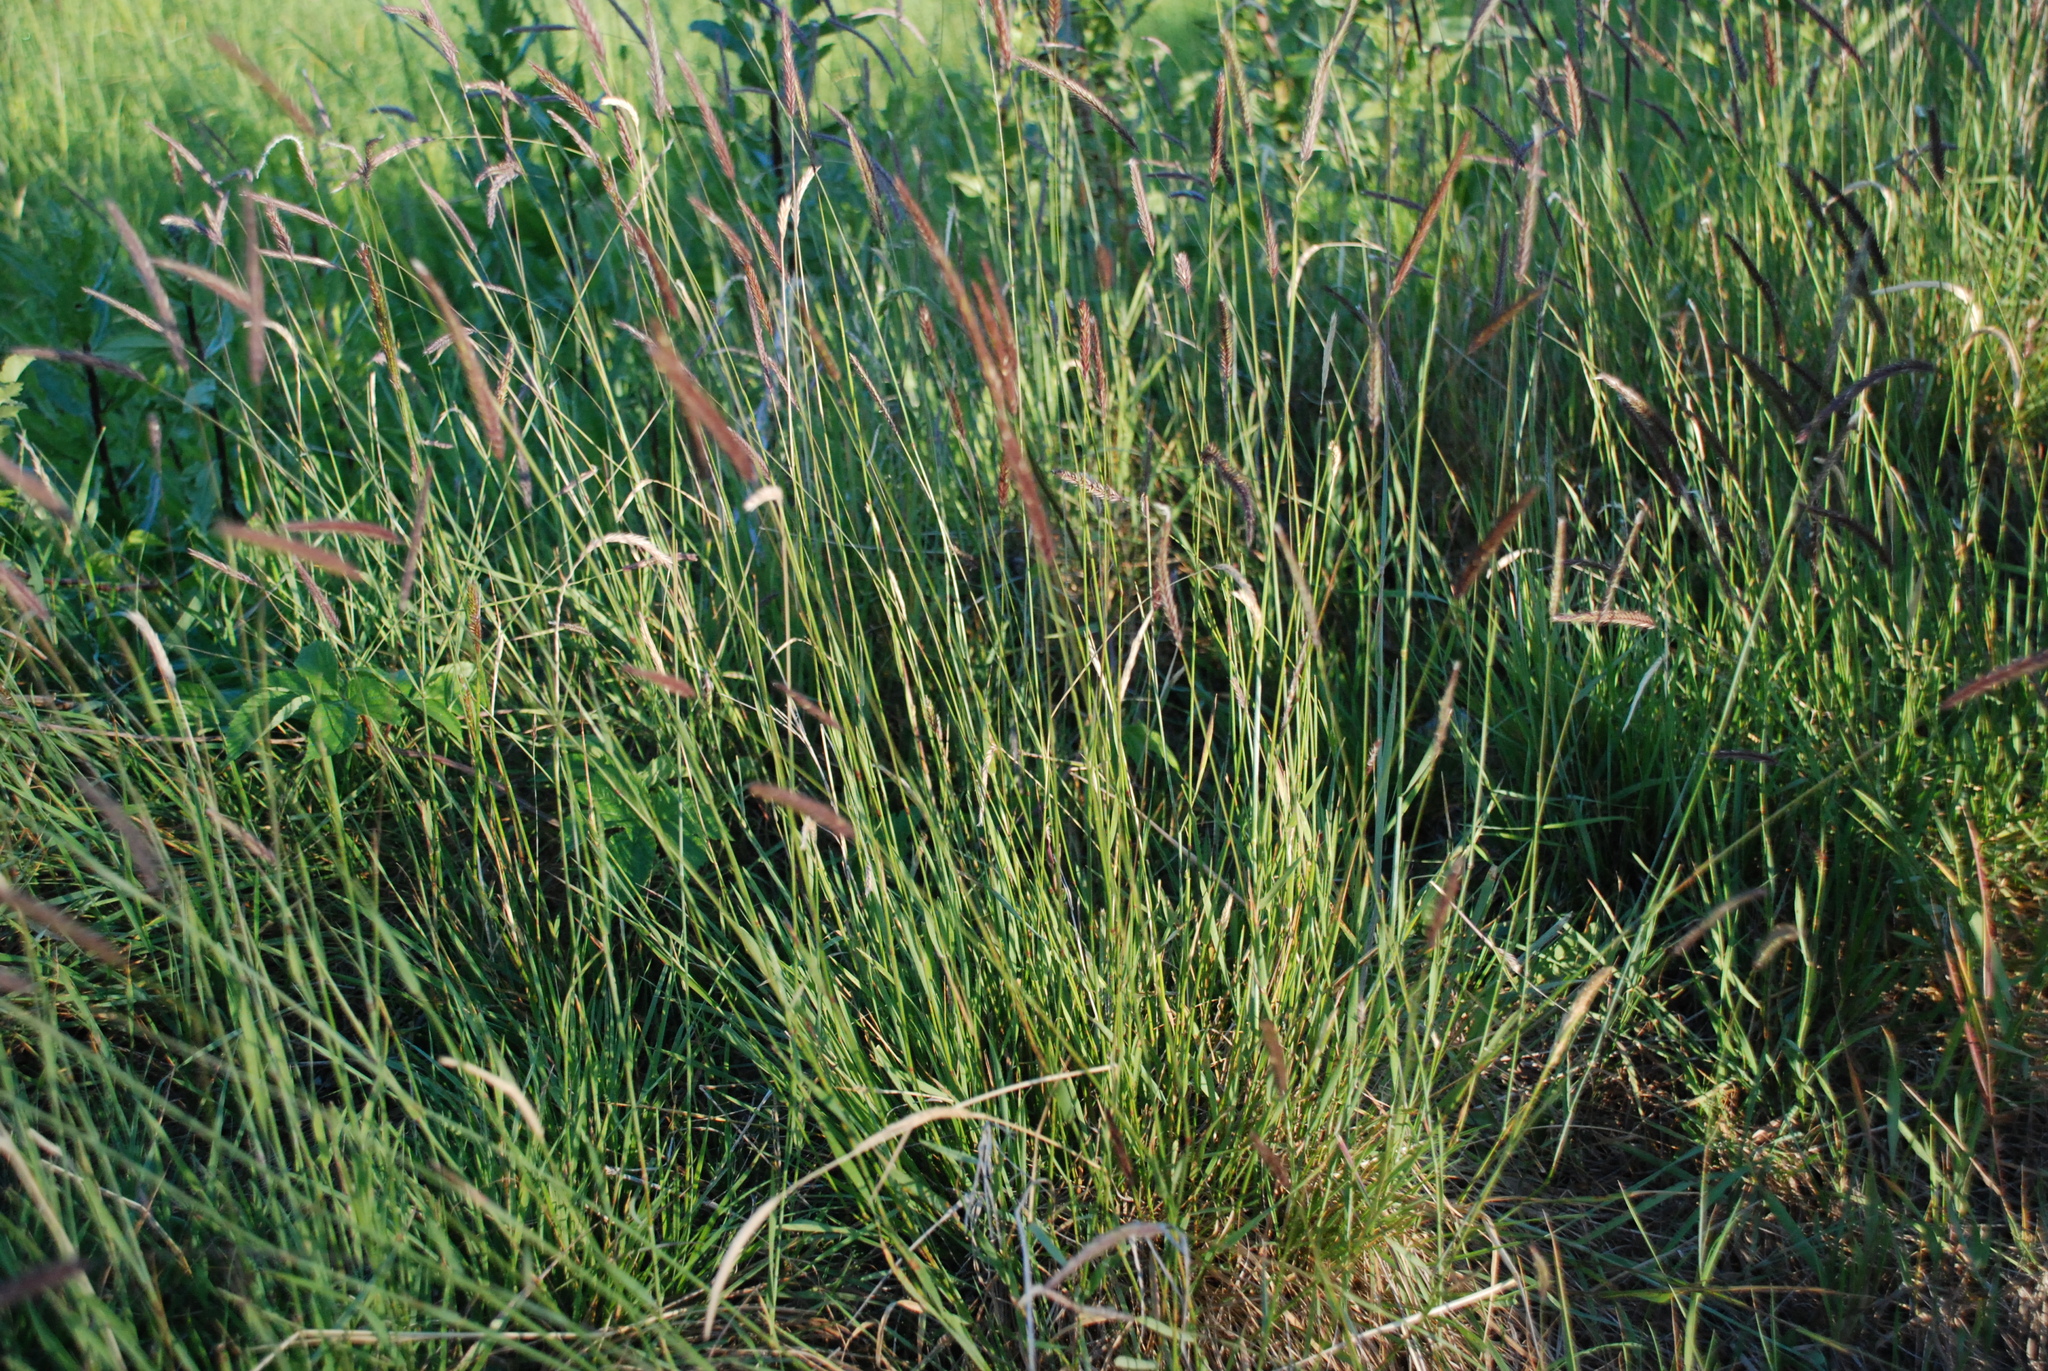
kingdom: Plantae
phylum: Tracheophyta
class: Liliopsida
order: Poales
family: Poaceae
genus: Hordeum
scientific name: Hordeum brevisubulatum
